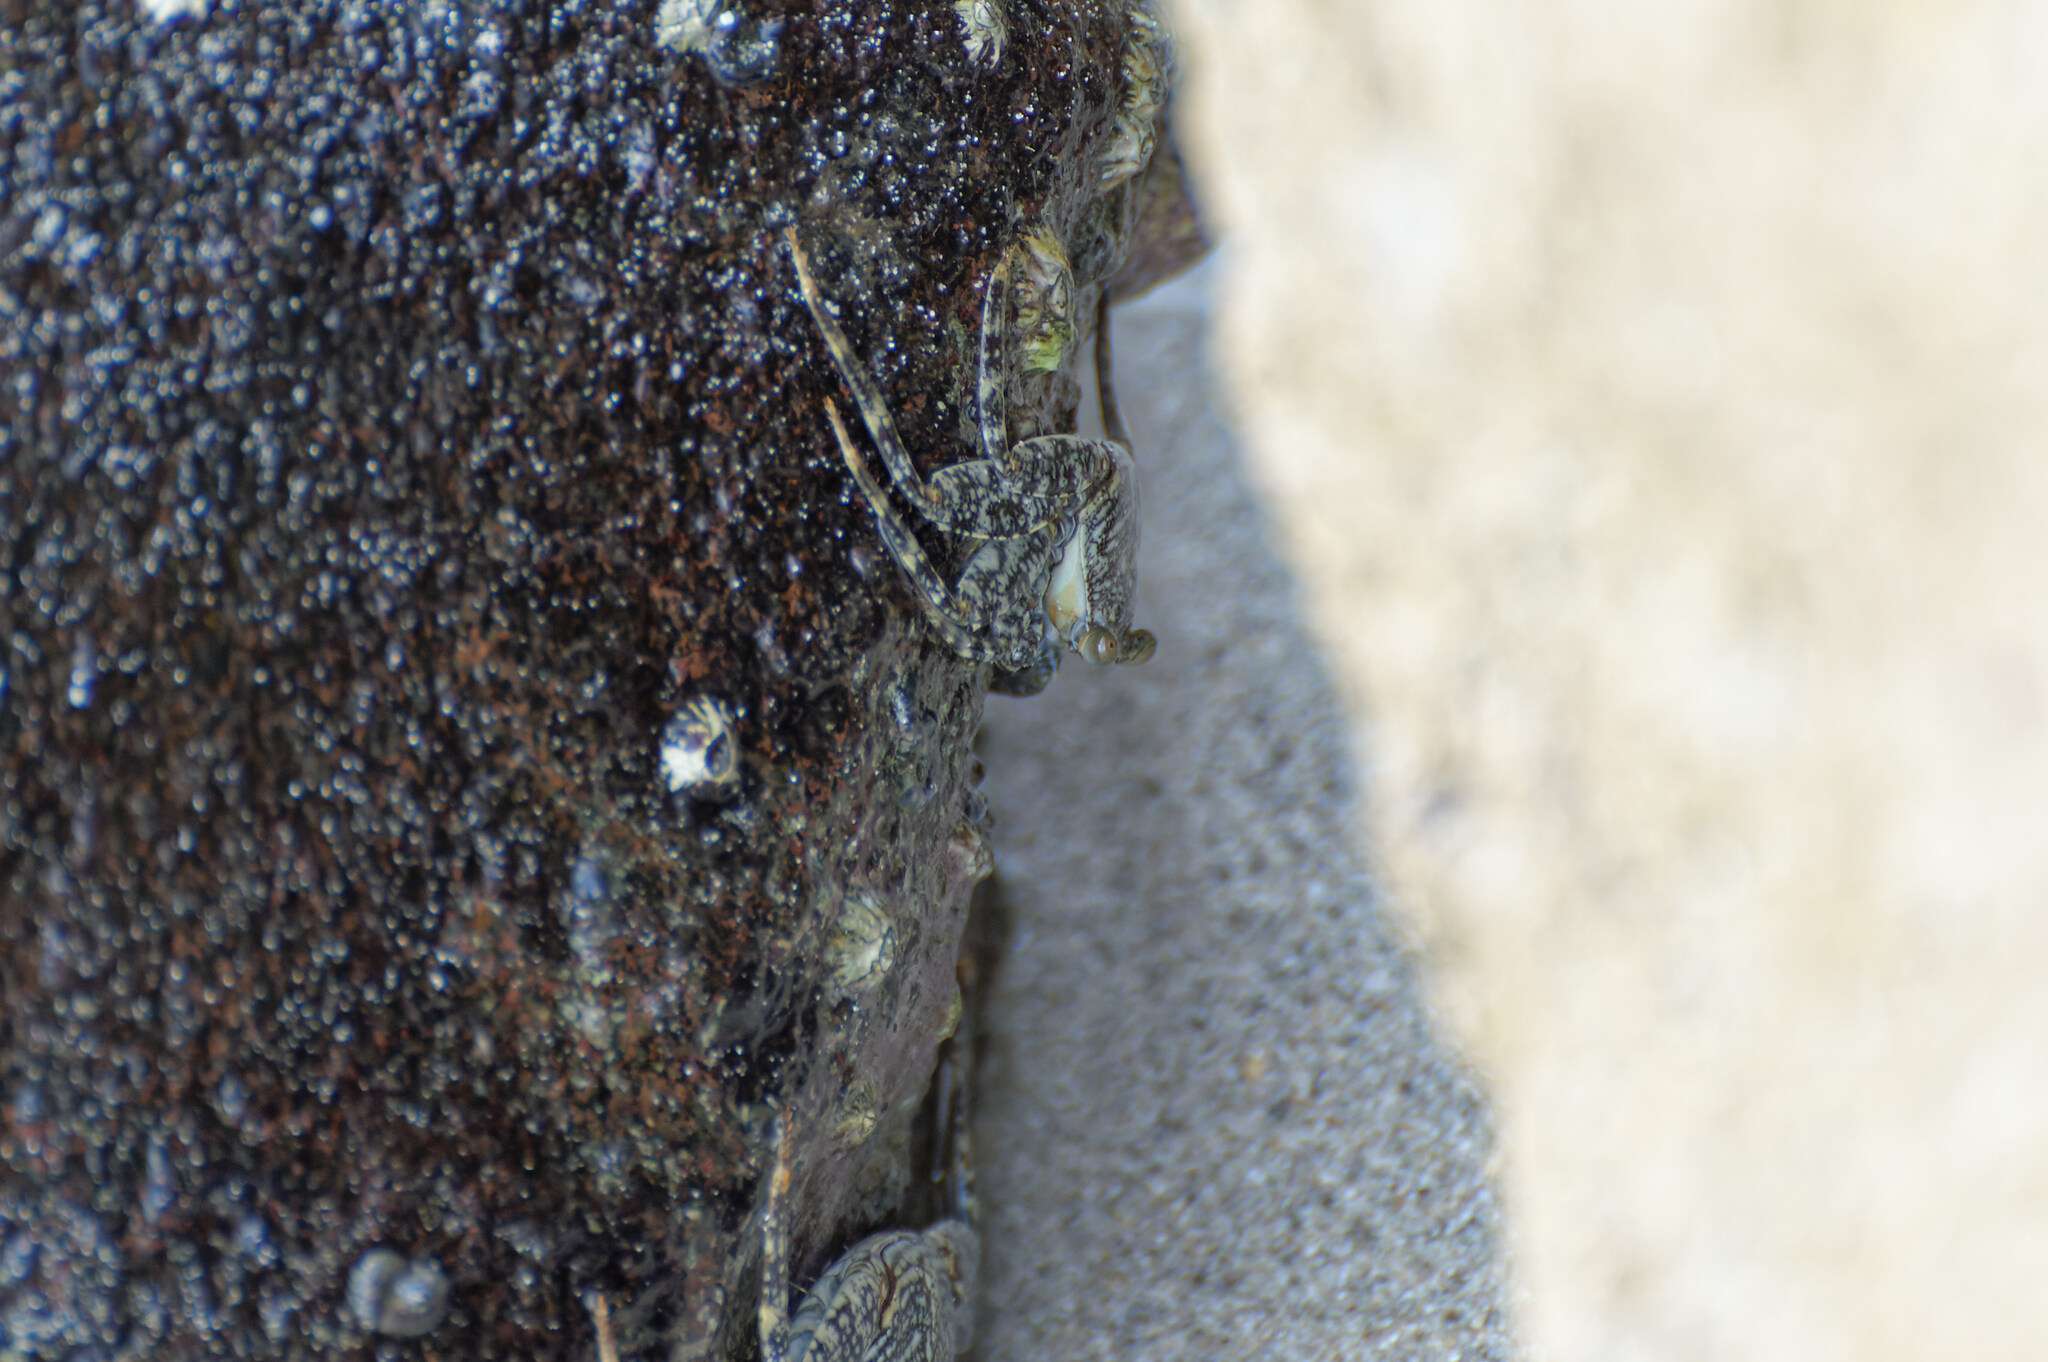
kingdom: Animalia
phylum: Arthropoda
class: Malacostraca
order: Decapoda
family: Grapsidae
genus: Grapsus
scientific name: Grapsus grapsus
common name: Sally lightfoot
